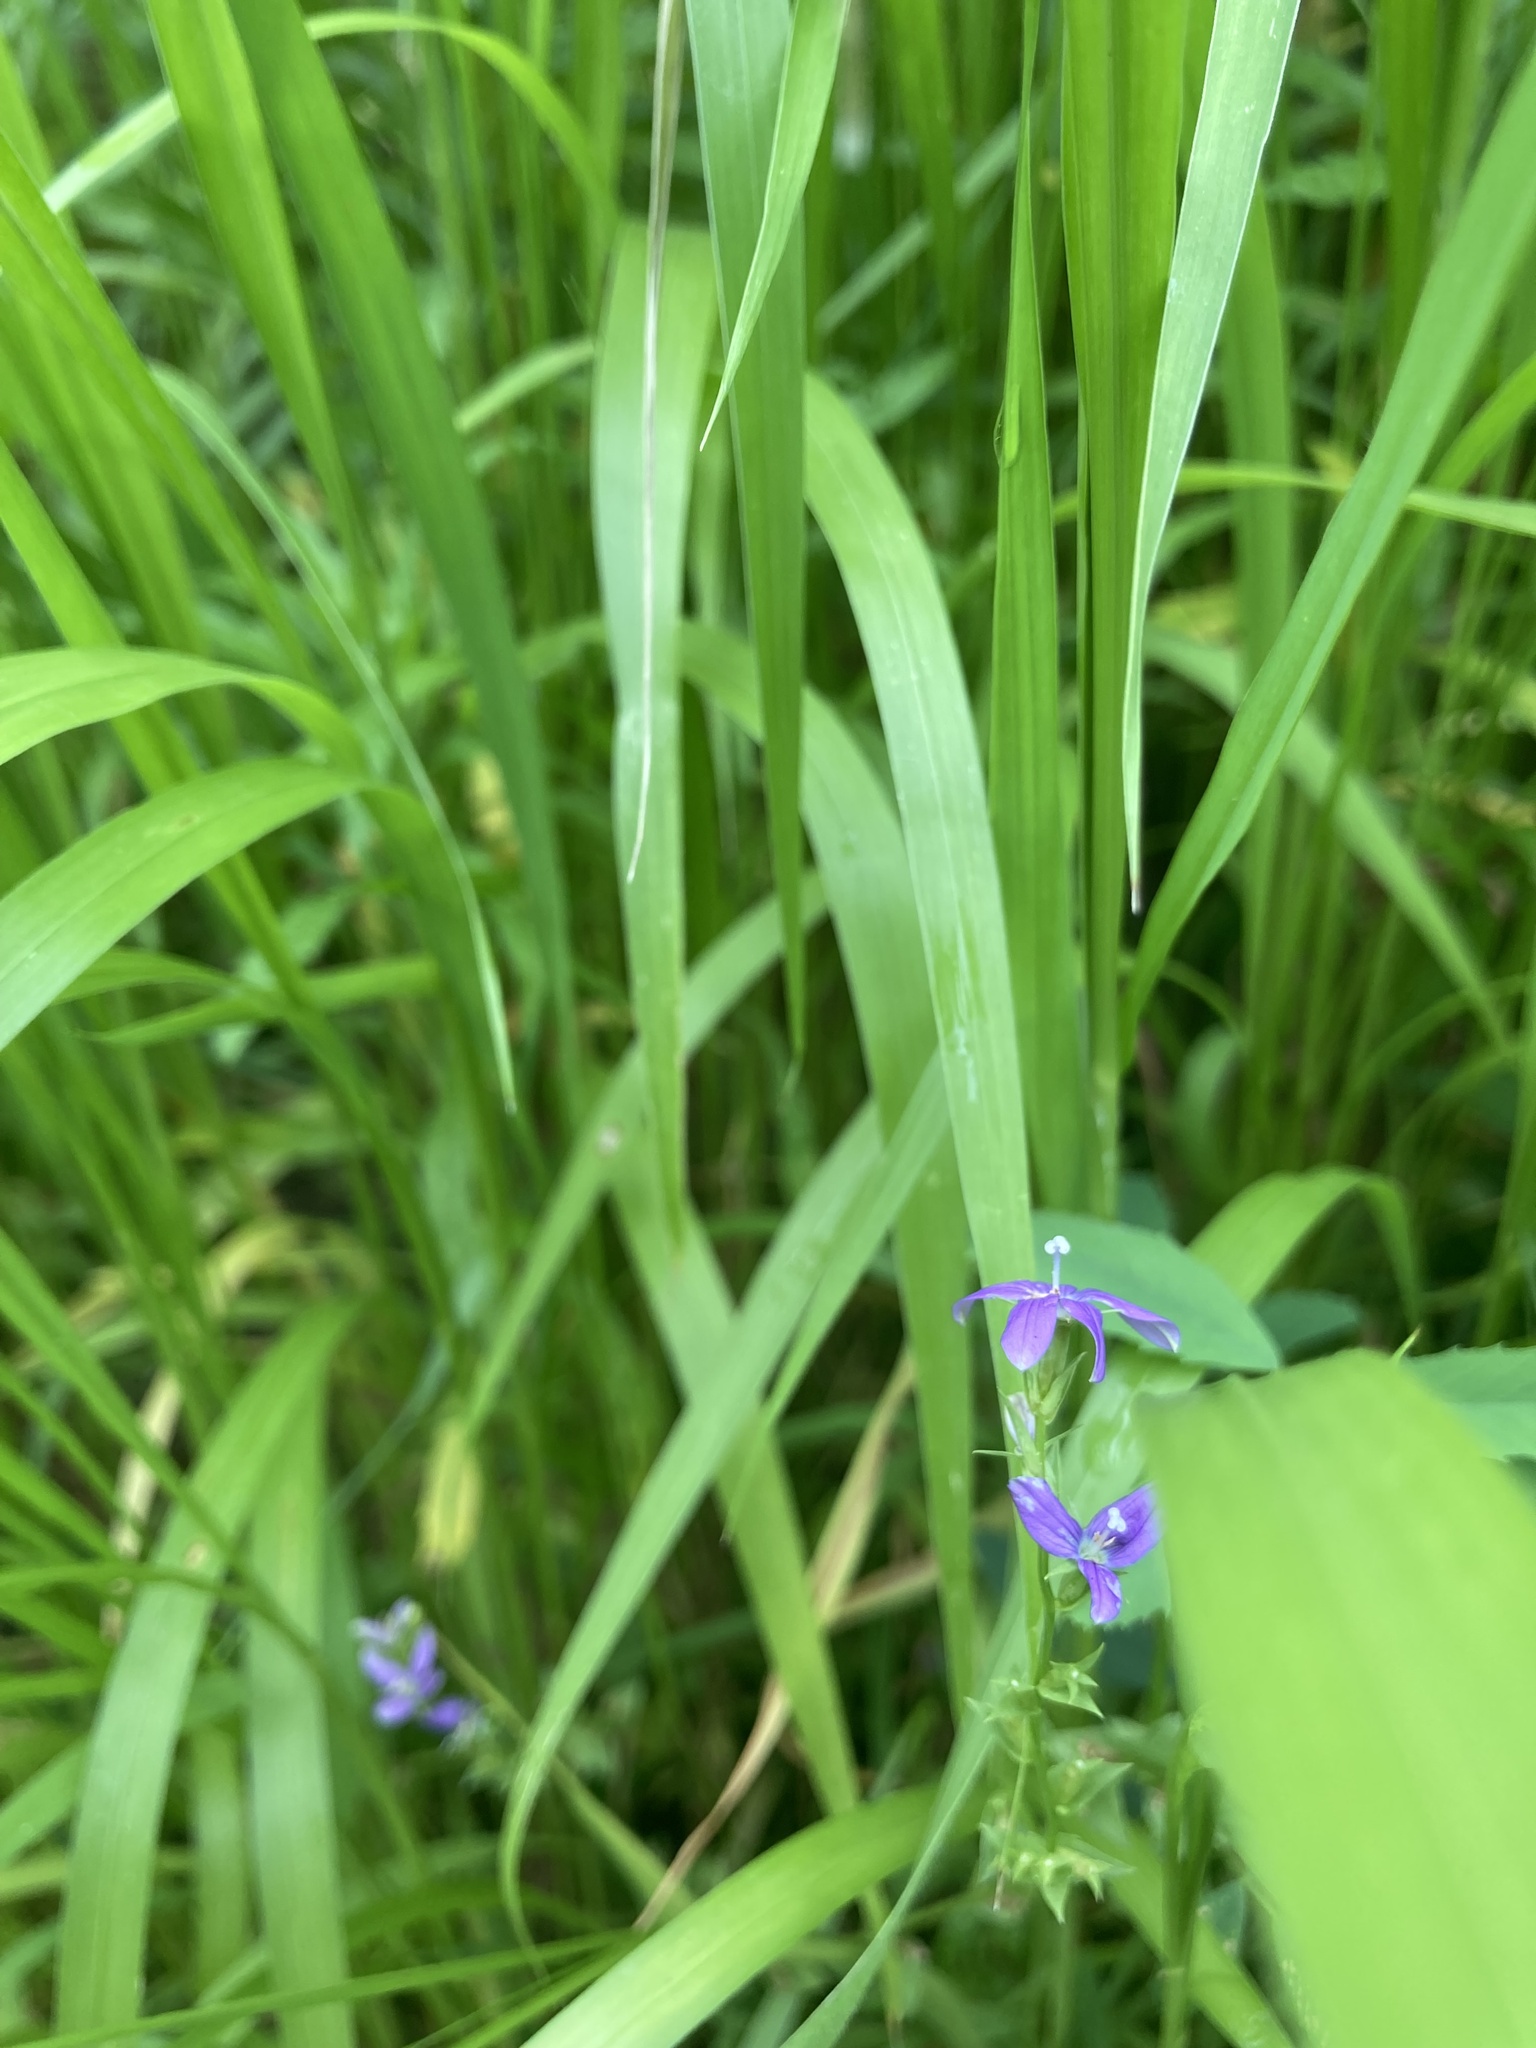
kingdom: Plantae
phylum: Tracheophyta
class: Magnoliopsida
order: Asterales
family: Campanulaceae
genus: Triodanis
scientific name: Triodanis biflora
